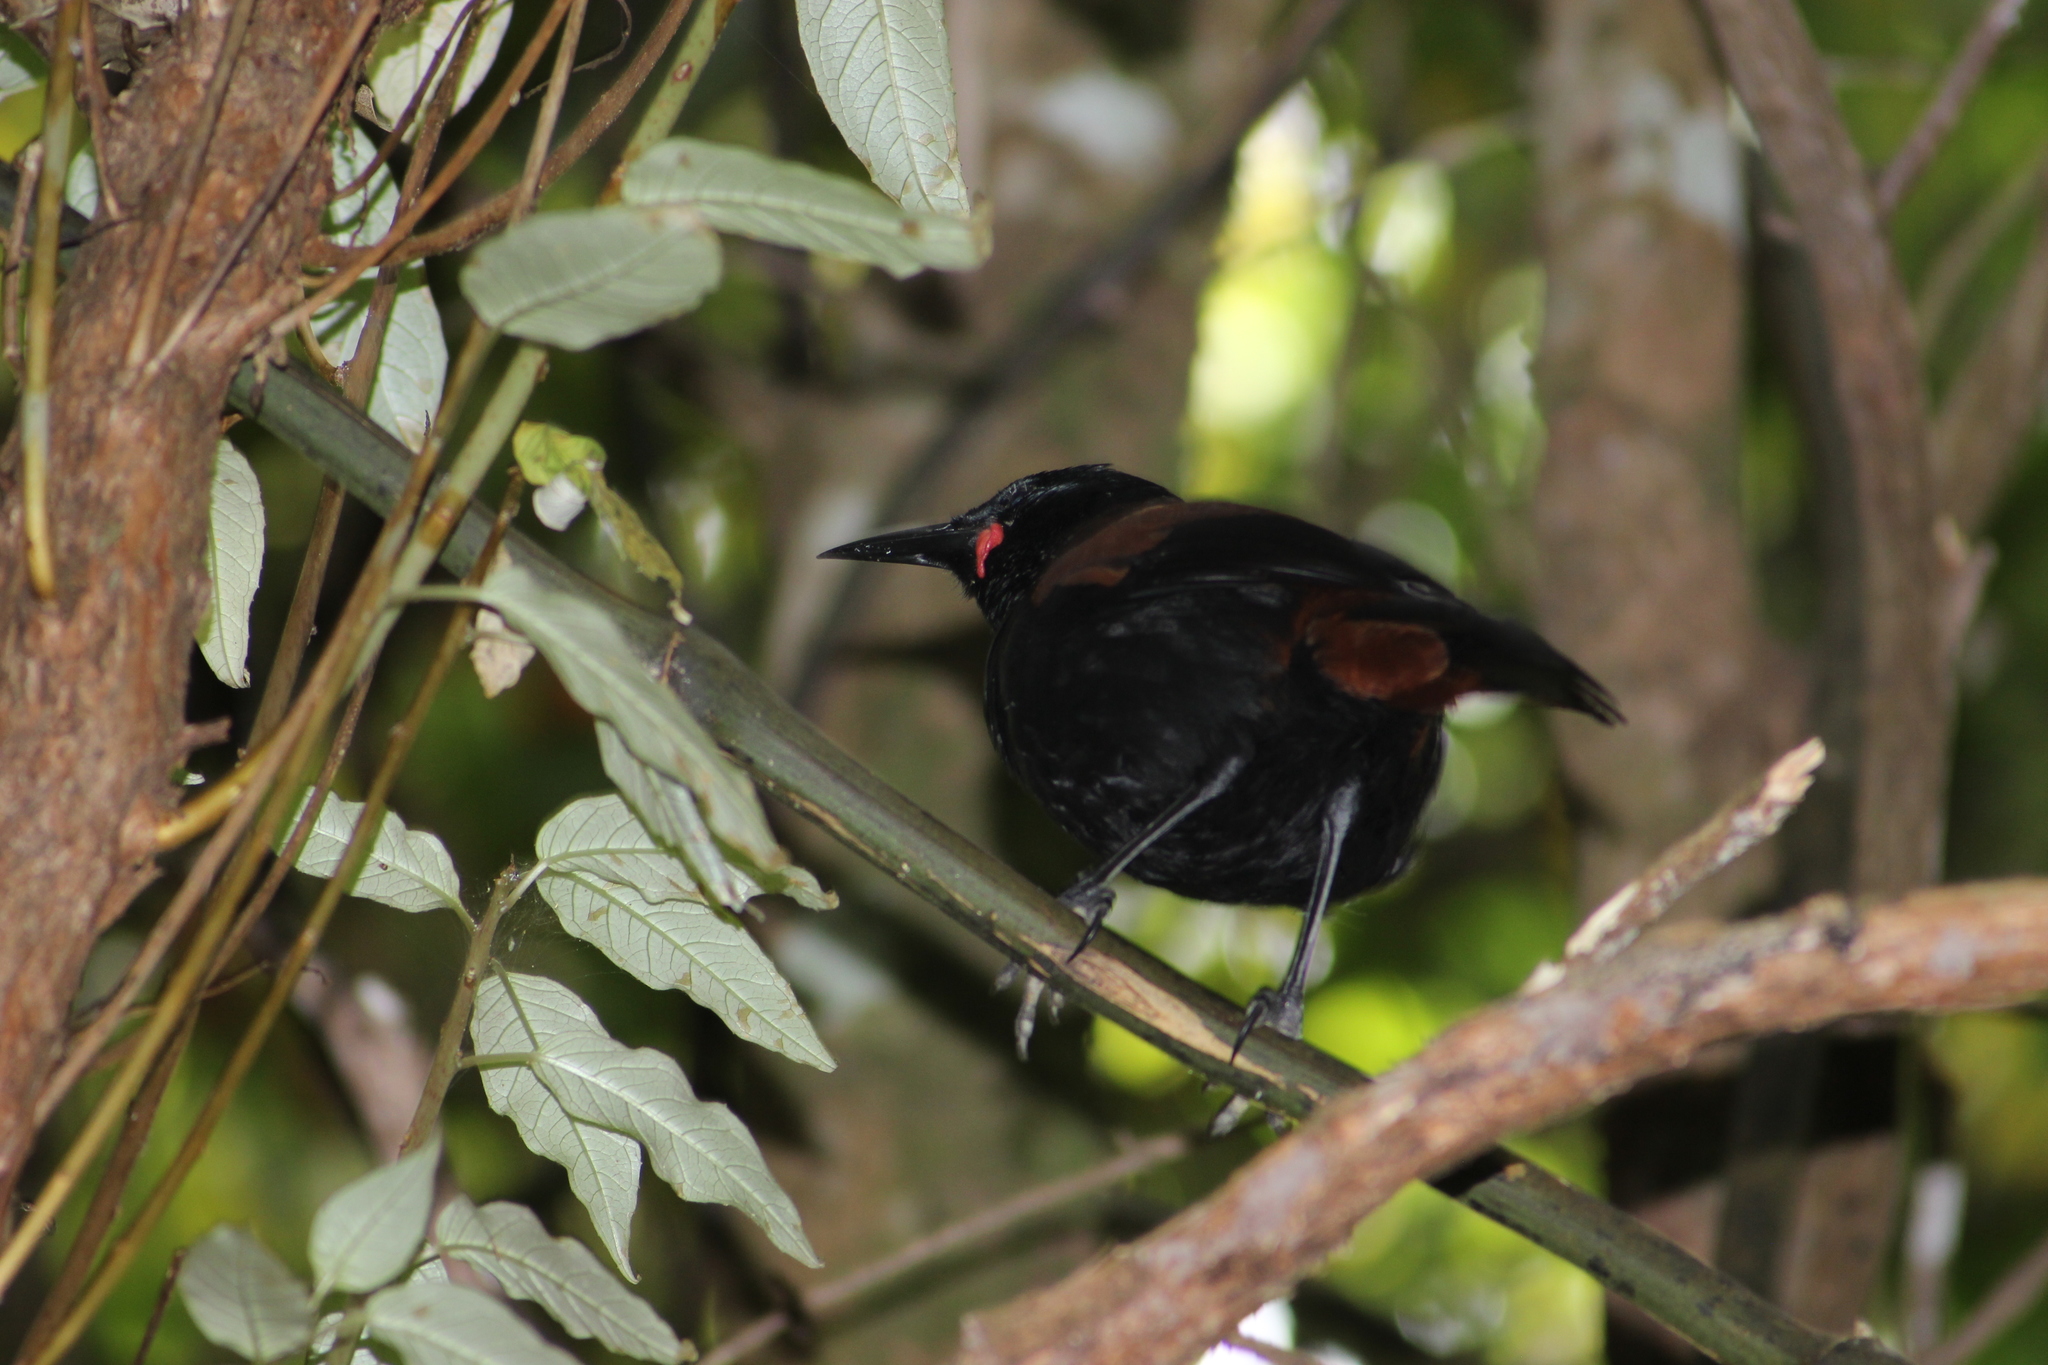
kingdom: Animalia
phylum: Chordata
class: Aves
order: Passeriformes
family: Callaeatidae
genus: Philesturnus
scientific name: Philesturnus carunculatus
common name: South island saddleback
